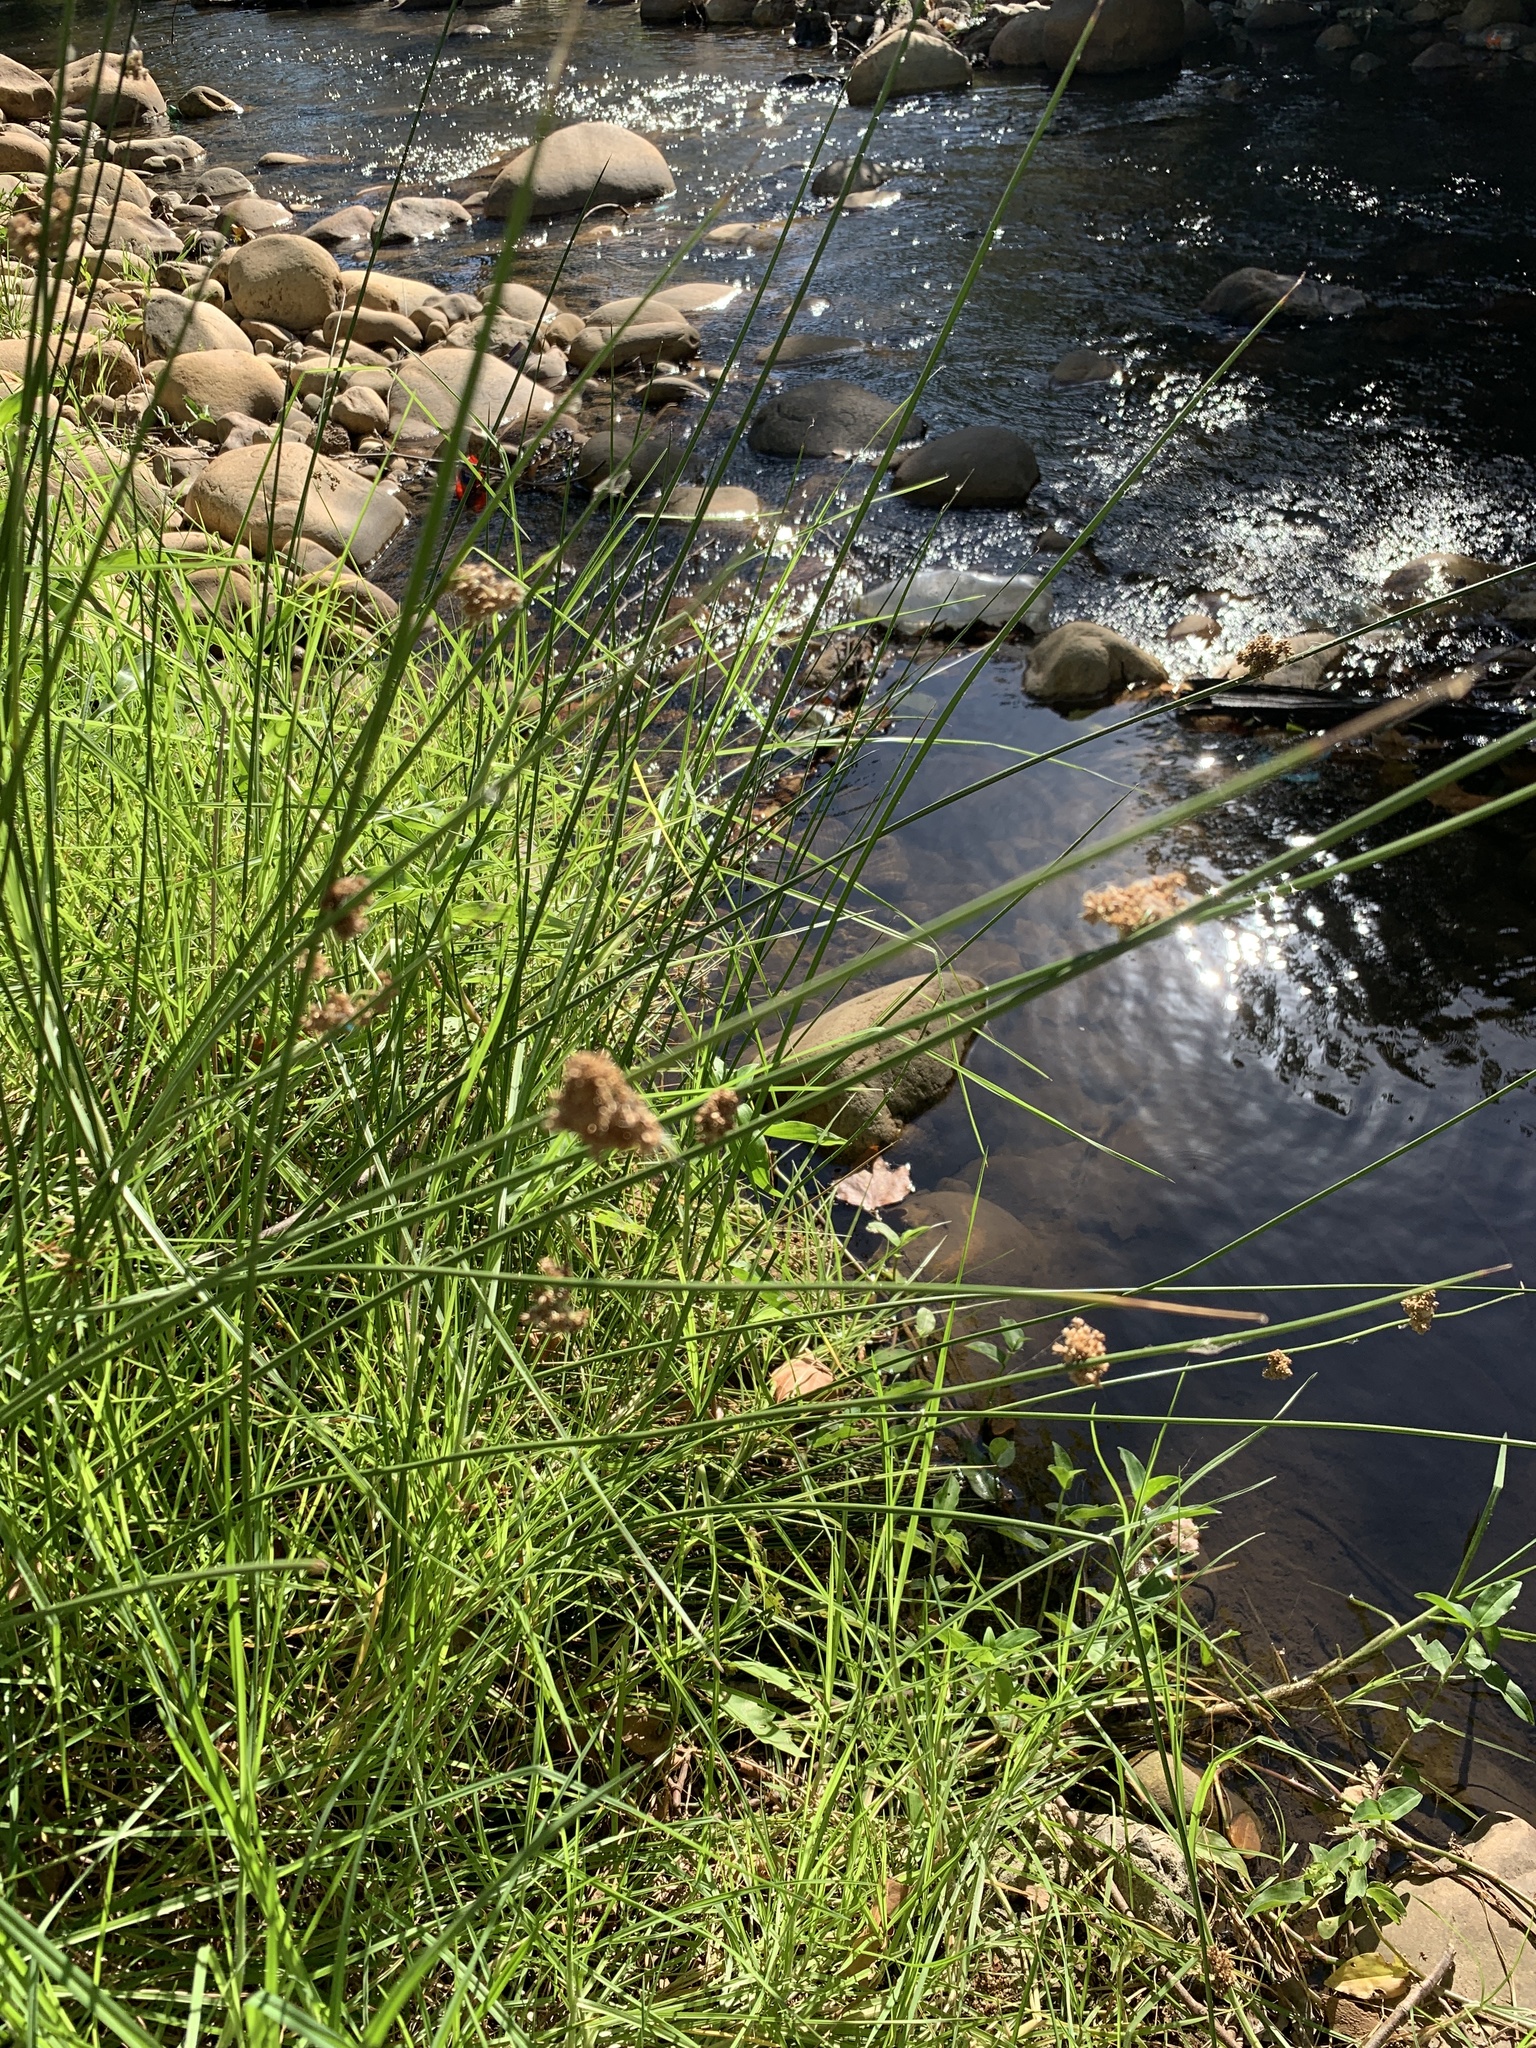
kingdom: Plantae
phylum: Tracheophyta
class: Liliopsida
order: Poales
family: Juncaceae
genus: Juncus
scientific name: Juncus effusus
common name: Soft rush
